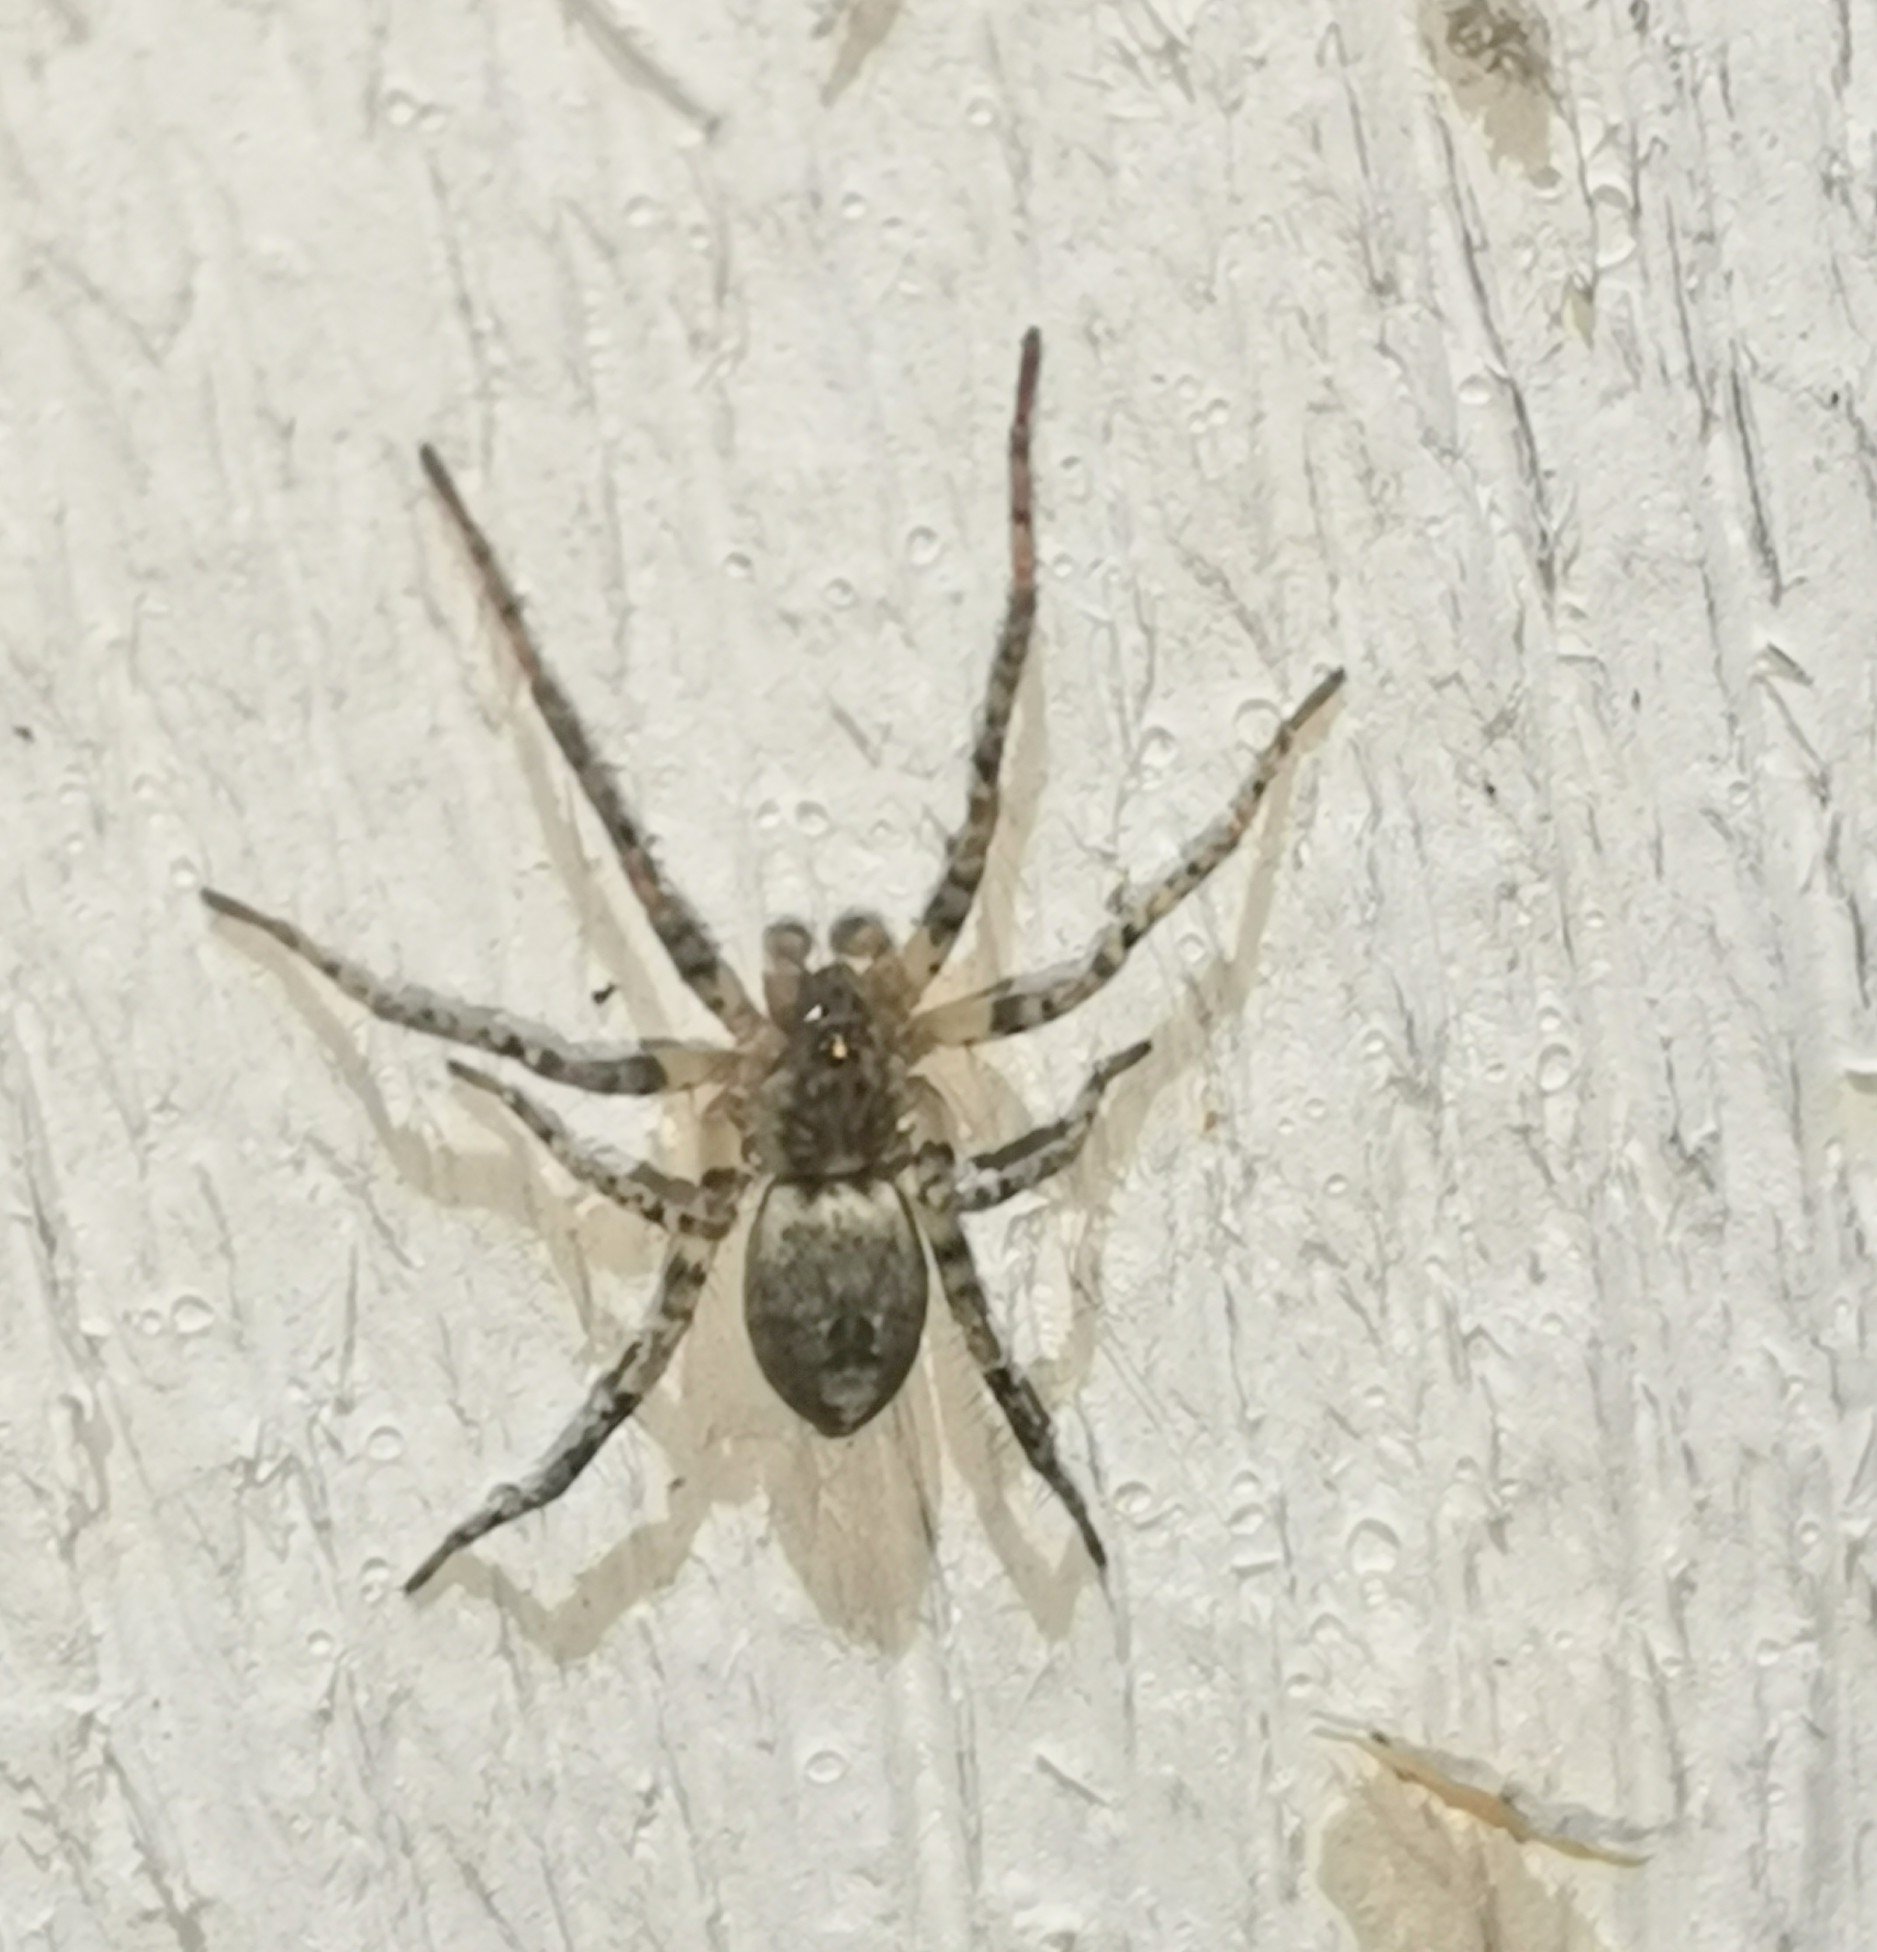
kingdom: Animalia
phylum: Arthropoda
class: Arachnida
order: Araneae
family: Anyphaenidae
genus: Anyphaena
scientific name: Anyphaena accentuata
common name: Buzzing spider
